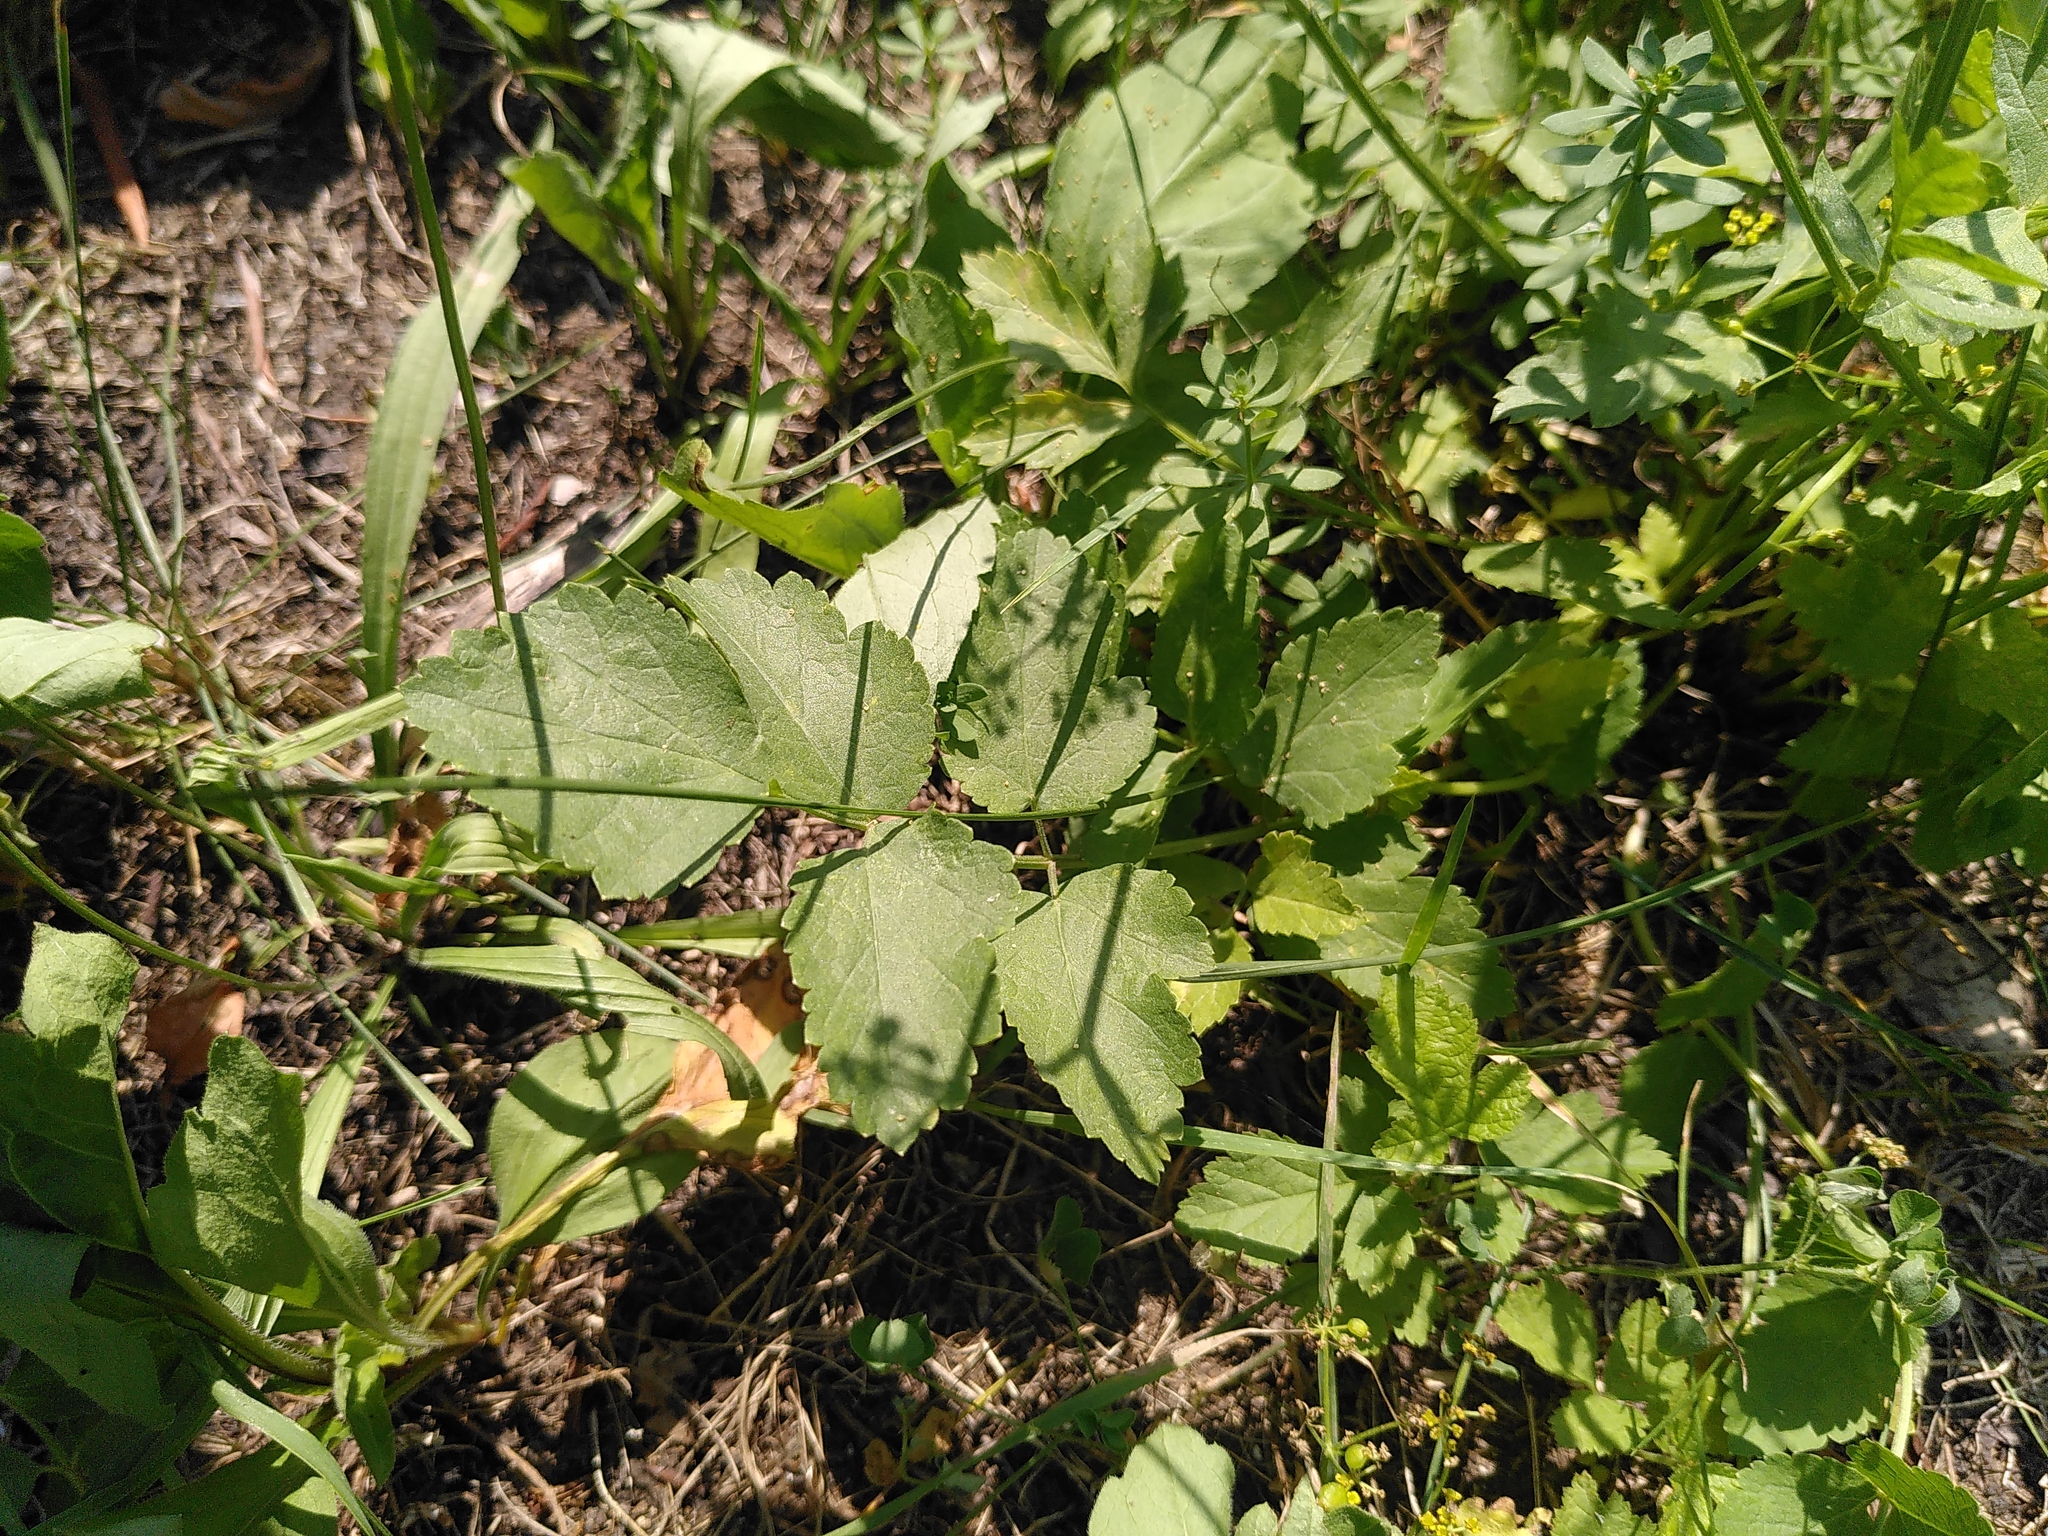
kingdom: Plantae
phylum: Tracheophyta
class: Magnoliopsida
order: Apiales
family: Apiaceae
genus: Pastinaca
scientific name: Pastinaca sativa
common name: Wild parsnip
